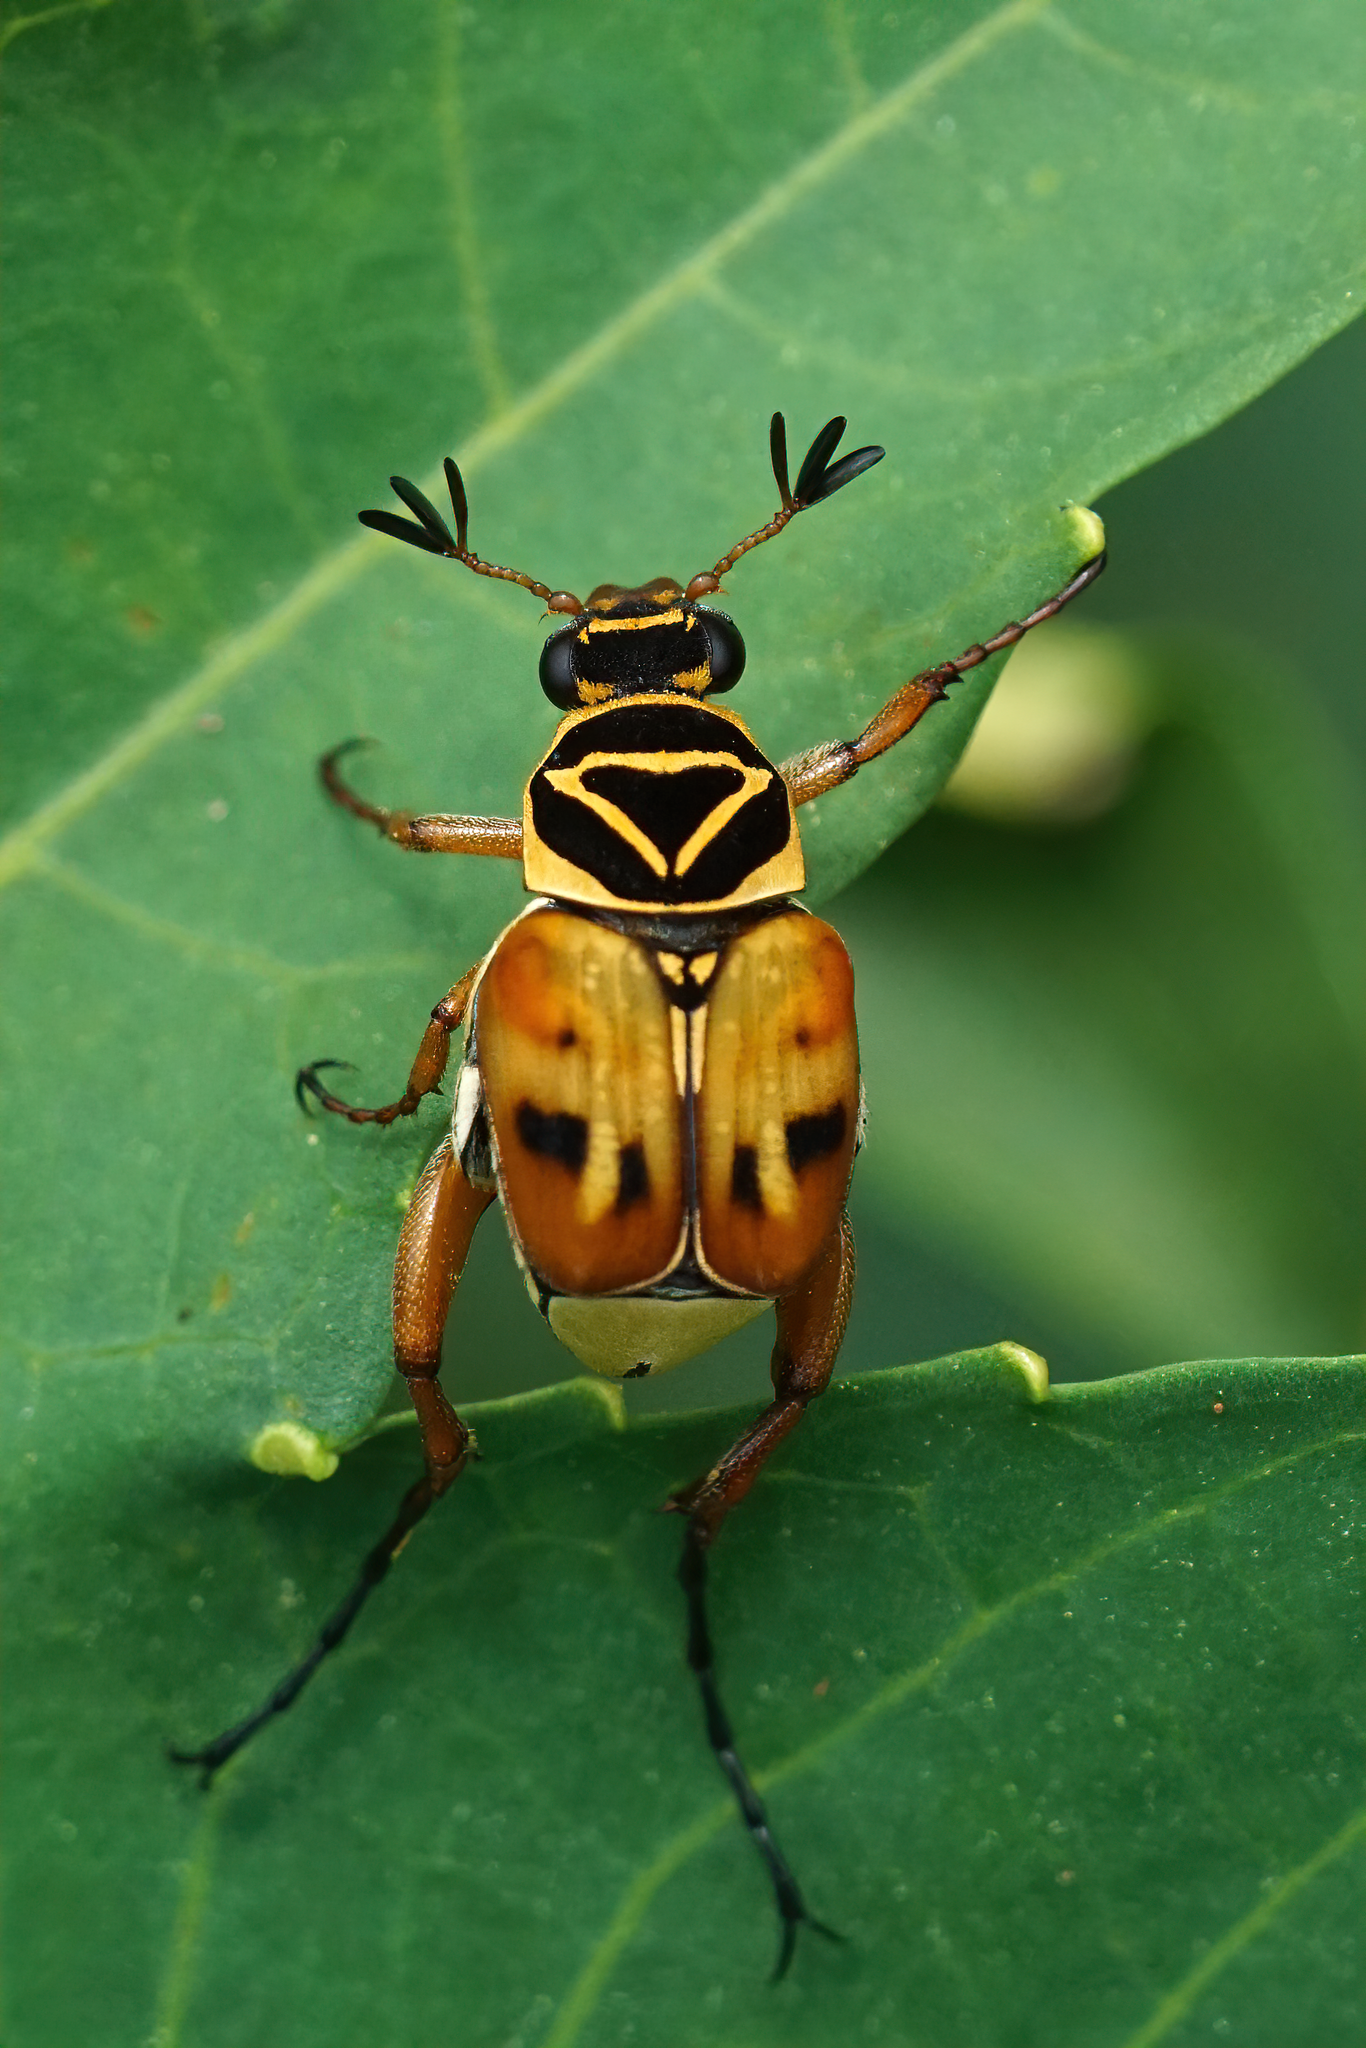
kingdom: Animalia
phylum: Arthropoda
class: Insecta
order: Coleoptera
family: Scarabaeidae
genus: Trigonopeltastes
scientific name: Trigonopeltastes delta
